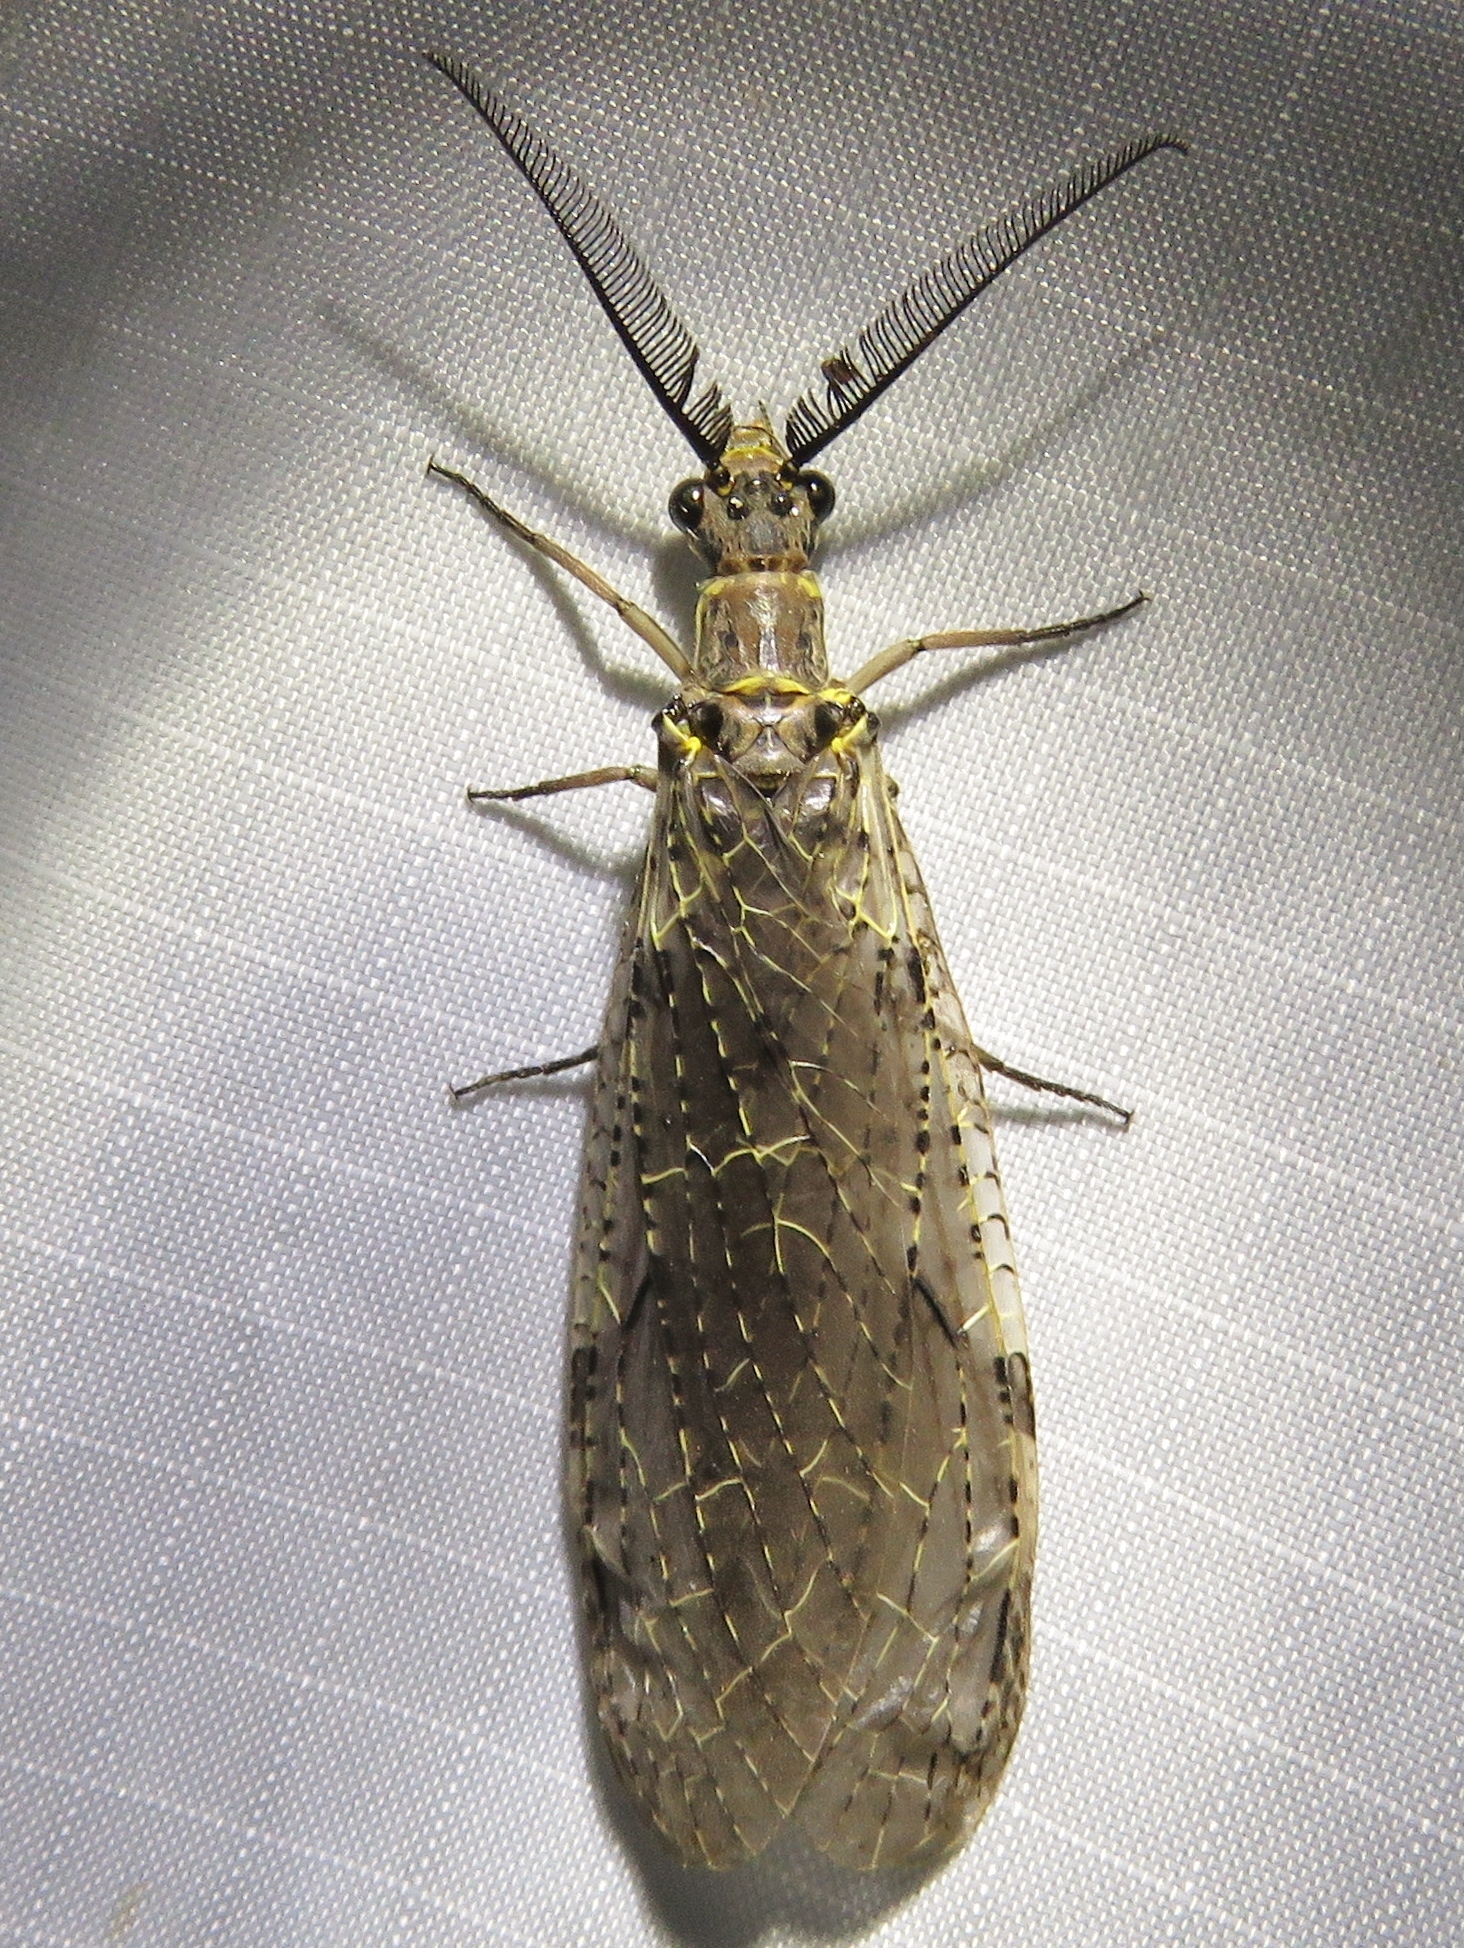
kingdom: Animalia
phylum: Arthropoda
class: Insecta
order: Megaloptera
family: Corydalidae
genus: Chauliodes
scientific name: Chauliodes rastricornis
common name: Spring fishfly
